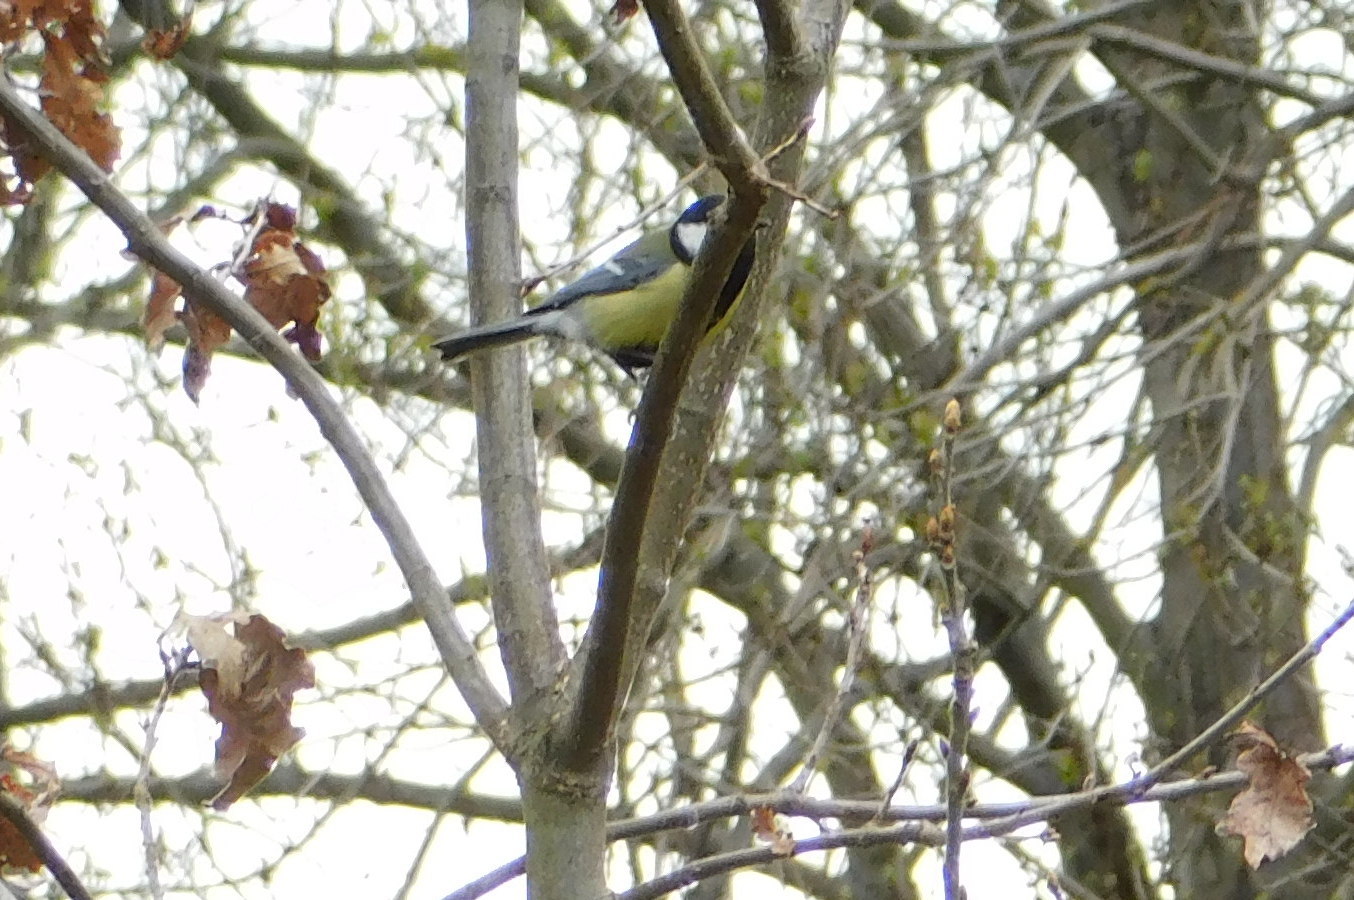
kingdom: Animalia
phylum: Chordata
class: Aves
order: Passeriformes
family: Paridae
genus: Parus
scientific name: Parus major
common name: Great tit
